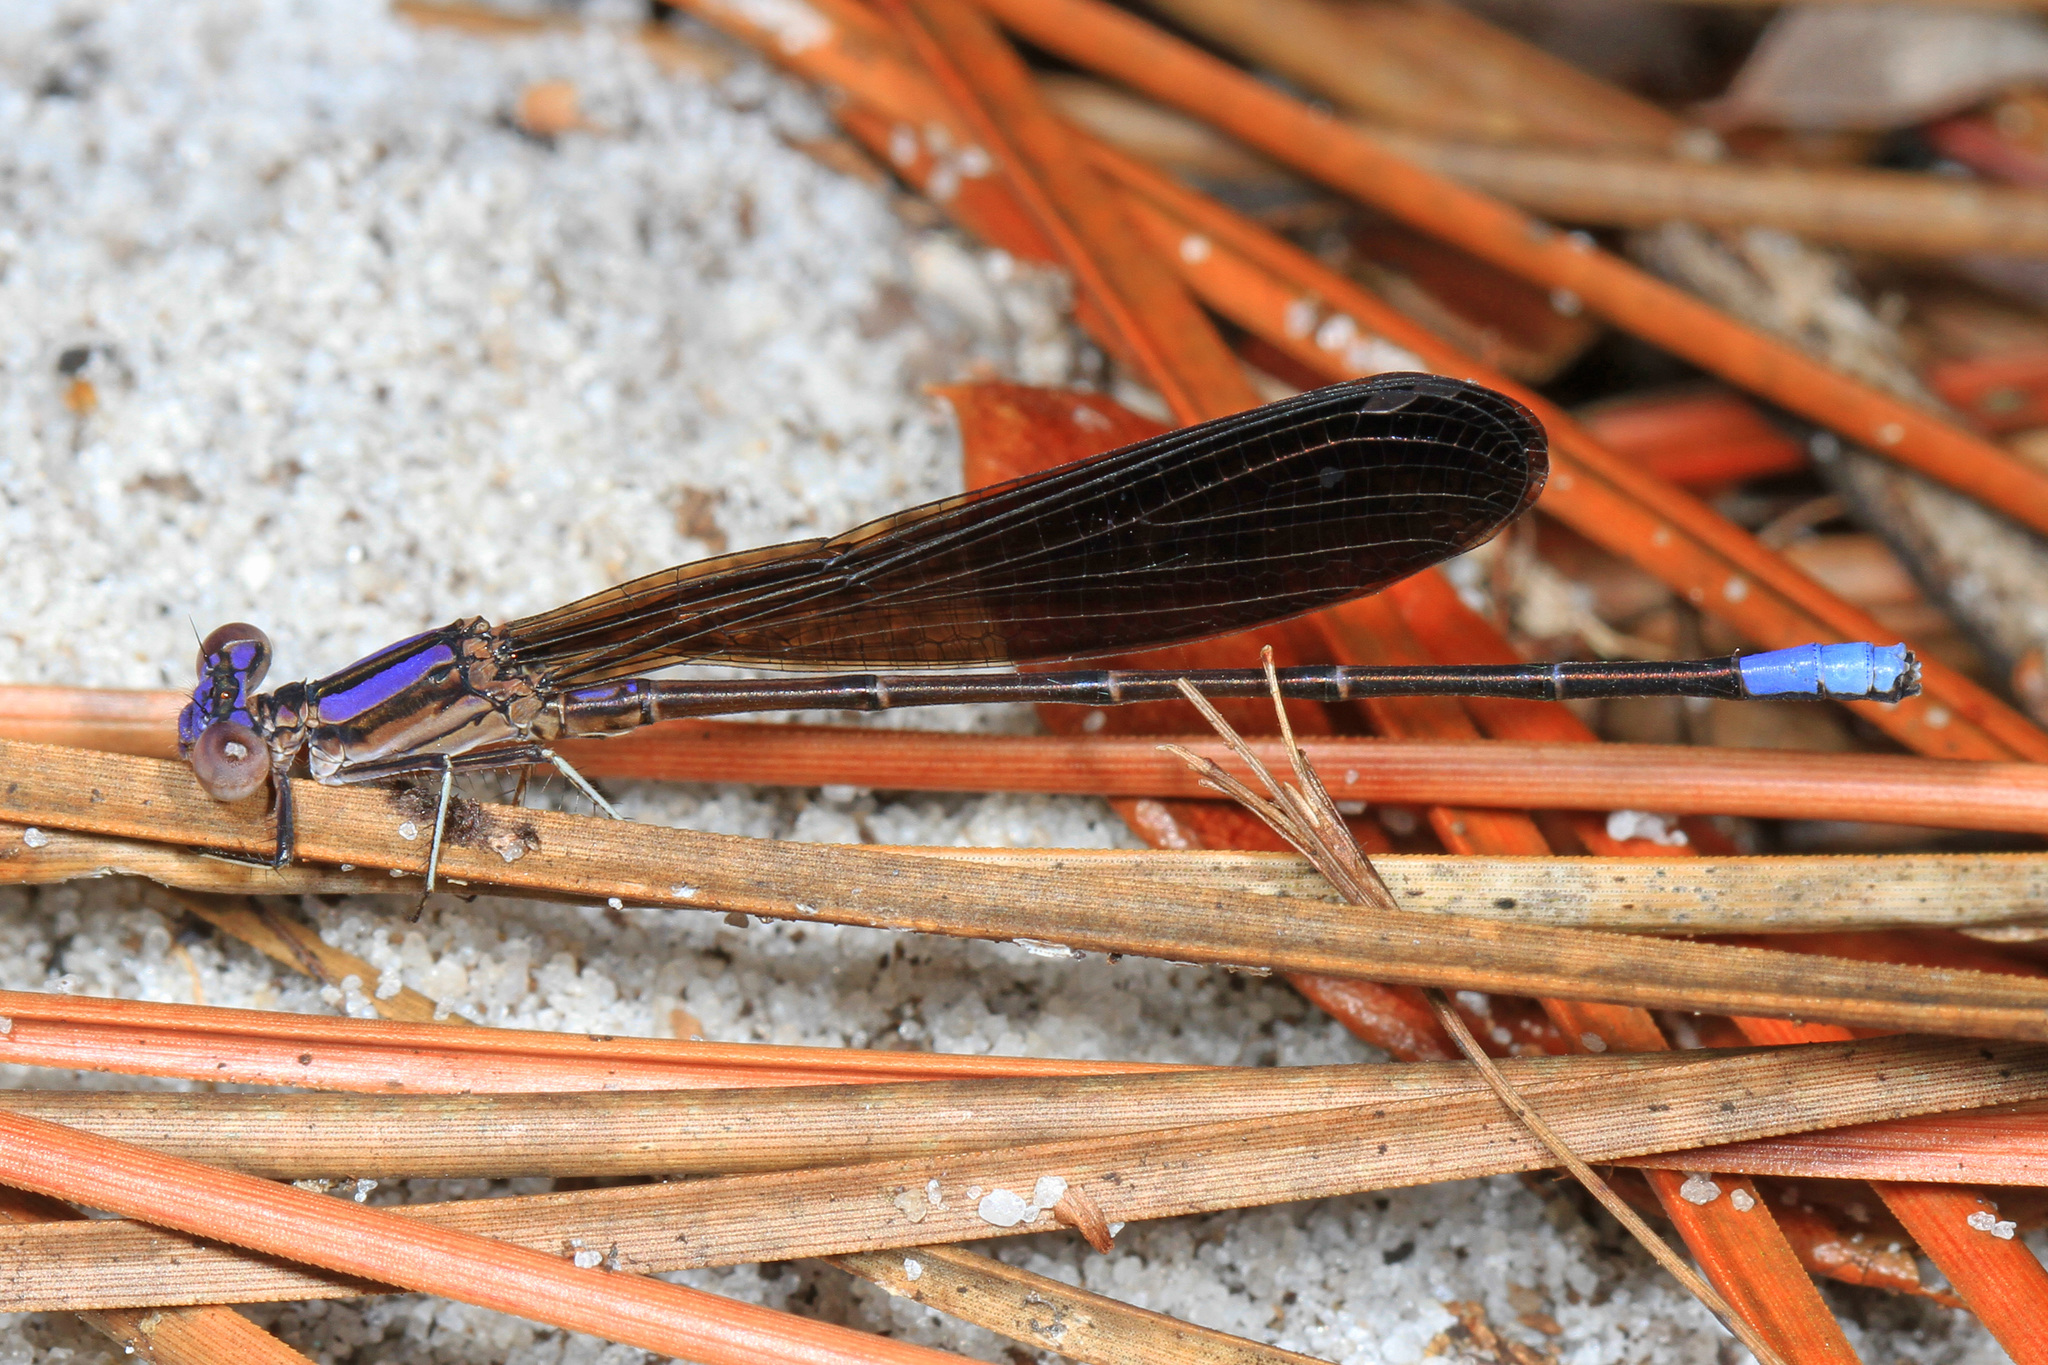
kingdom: Animalia
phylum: Arthropoda
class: Insecta
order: Odonata
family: Coenagrionidae
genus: Argia
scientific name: Argia fumipennis
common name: Variable dancer
